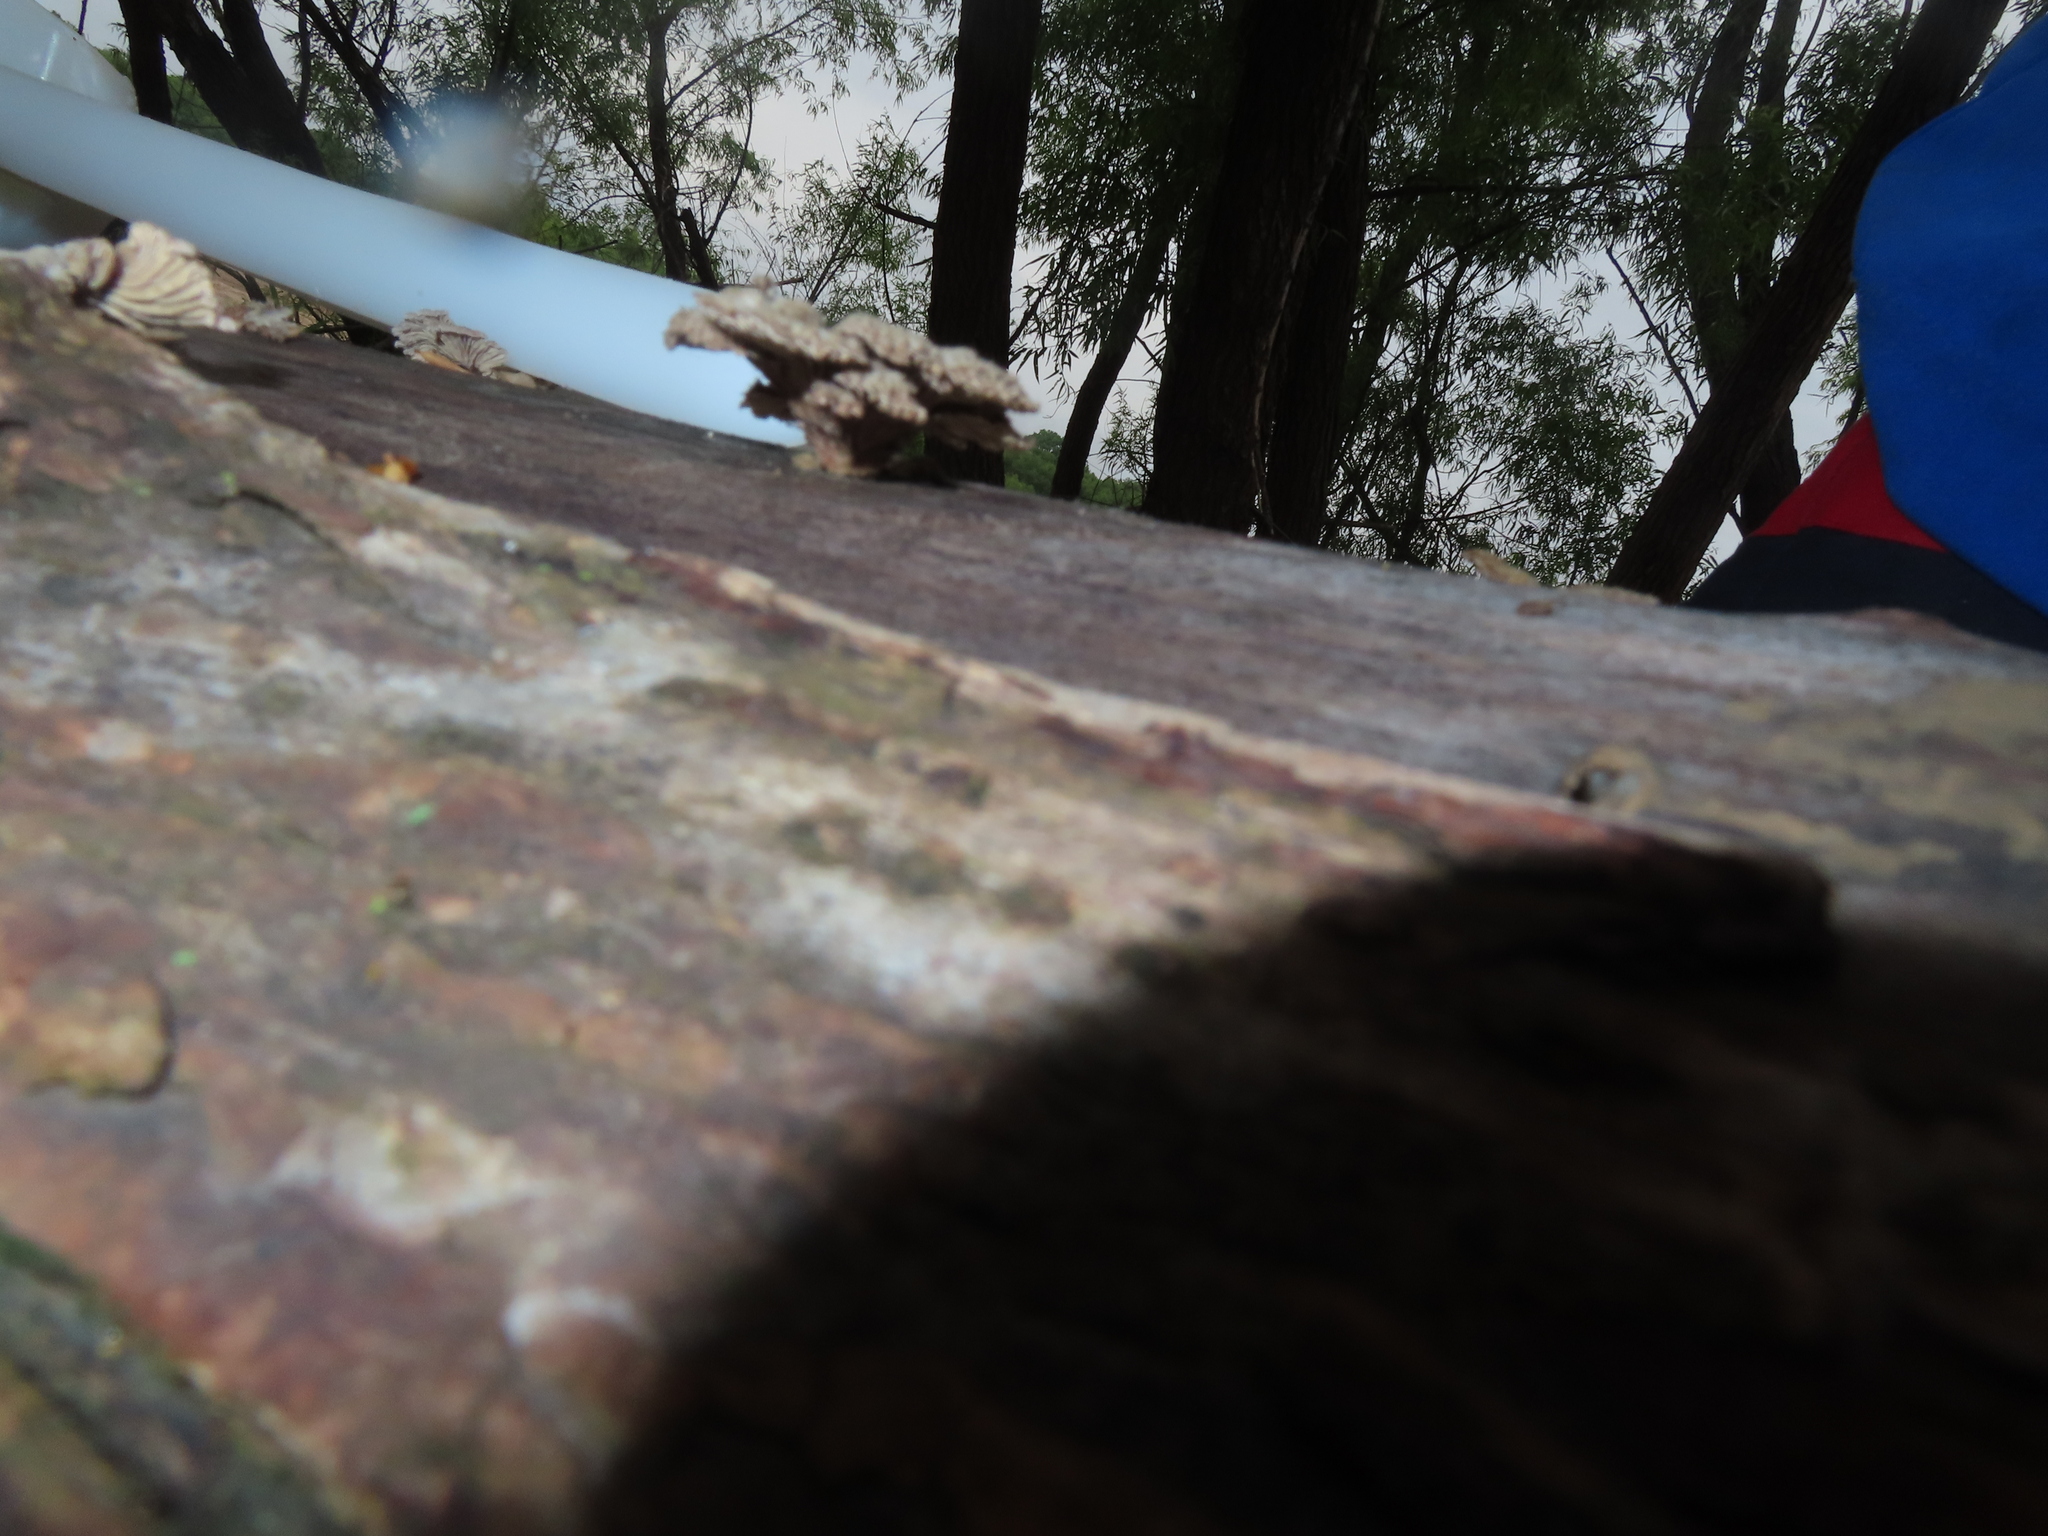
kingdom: Fungi
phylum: Basidiomycota
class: Agaricomycetes
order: Agaricales
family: Schizophyllaceae
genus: Schizophyllum
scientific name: Schizophyllum commune
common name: Common porecrust
